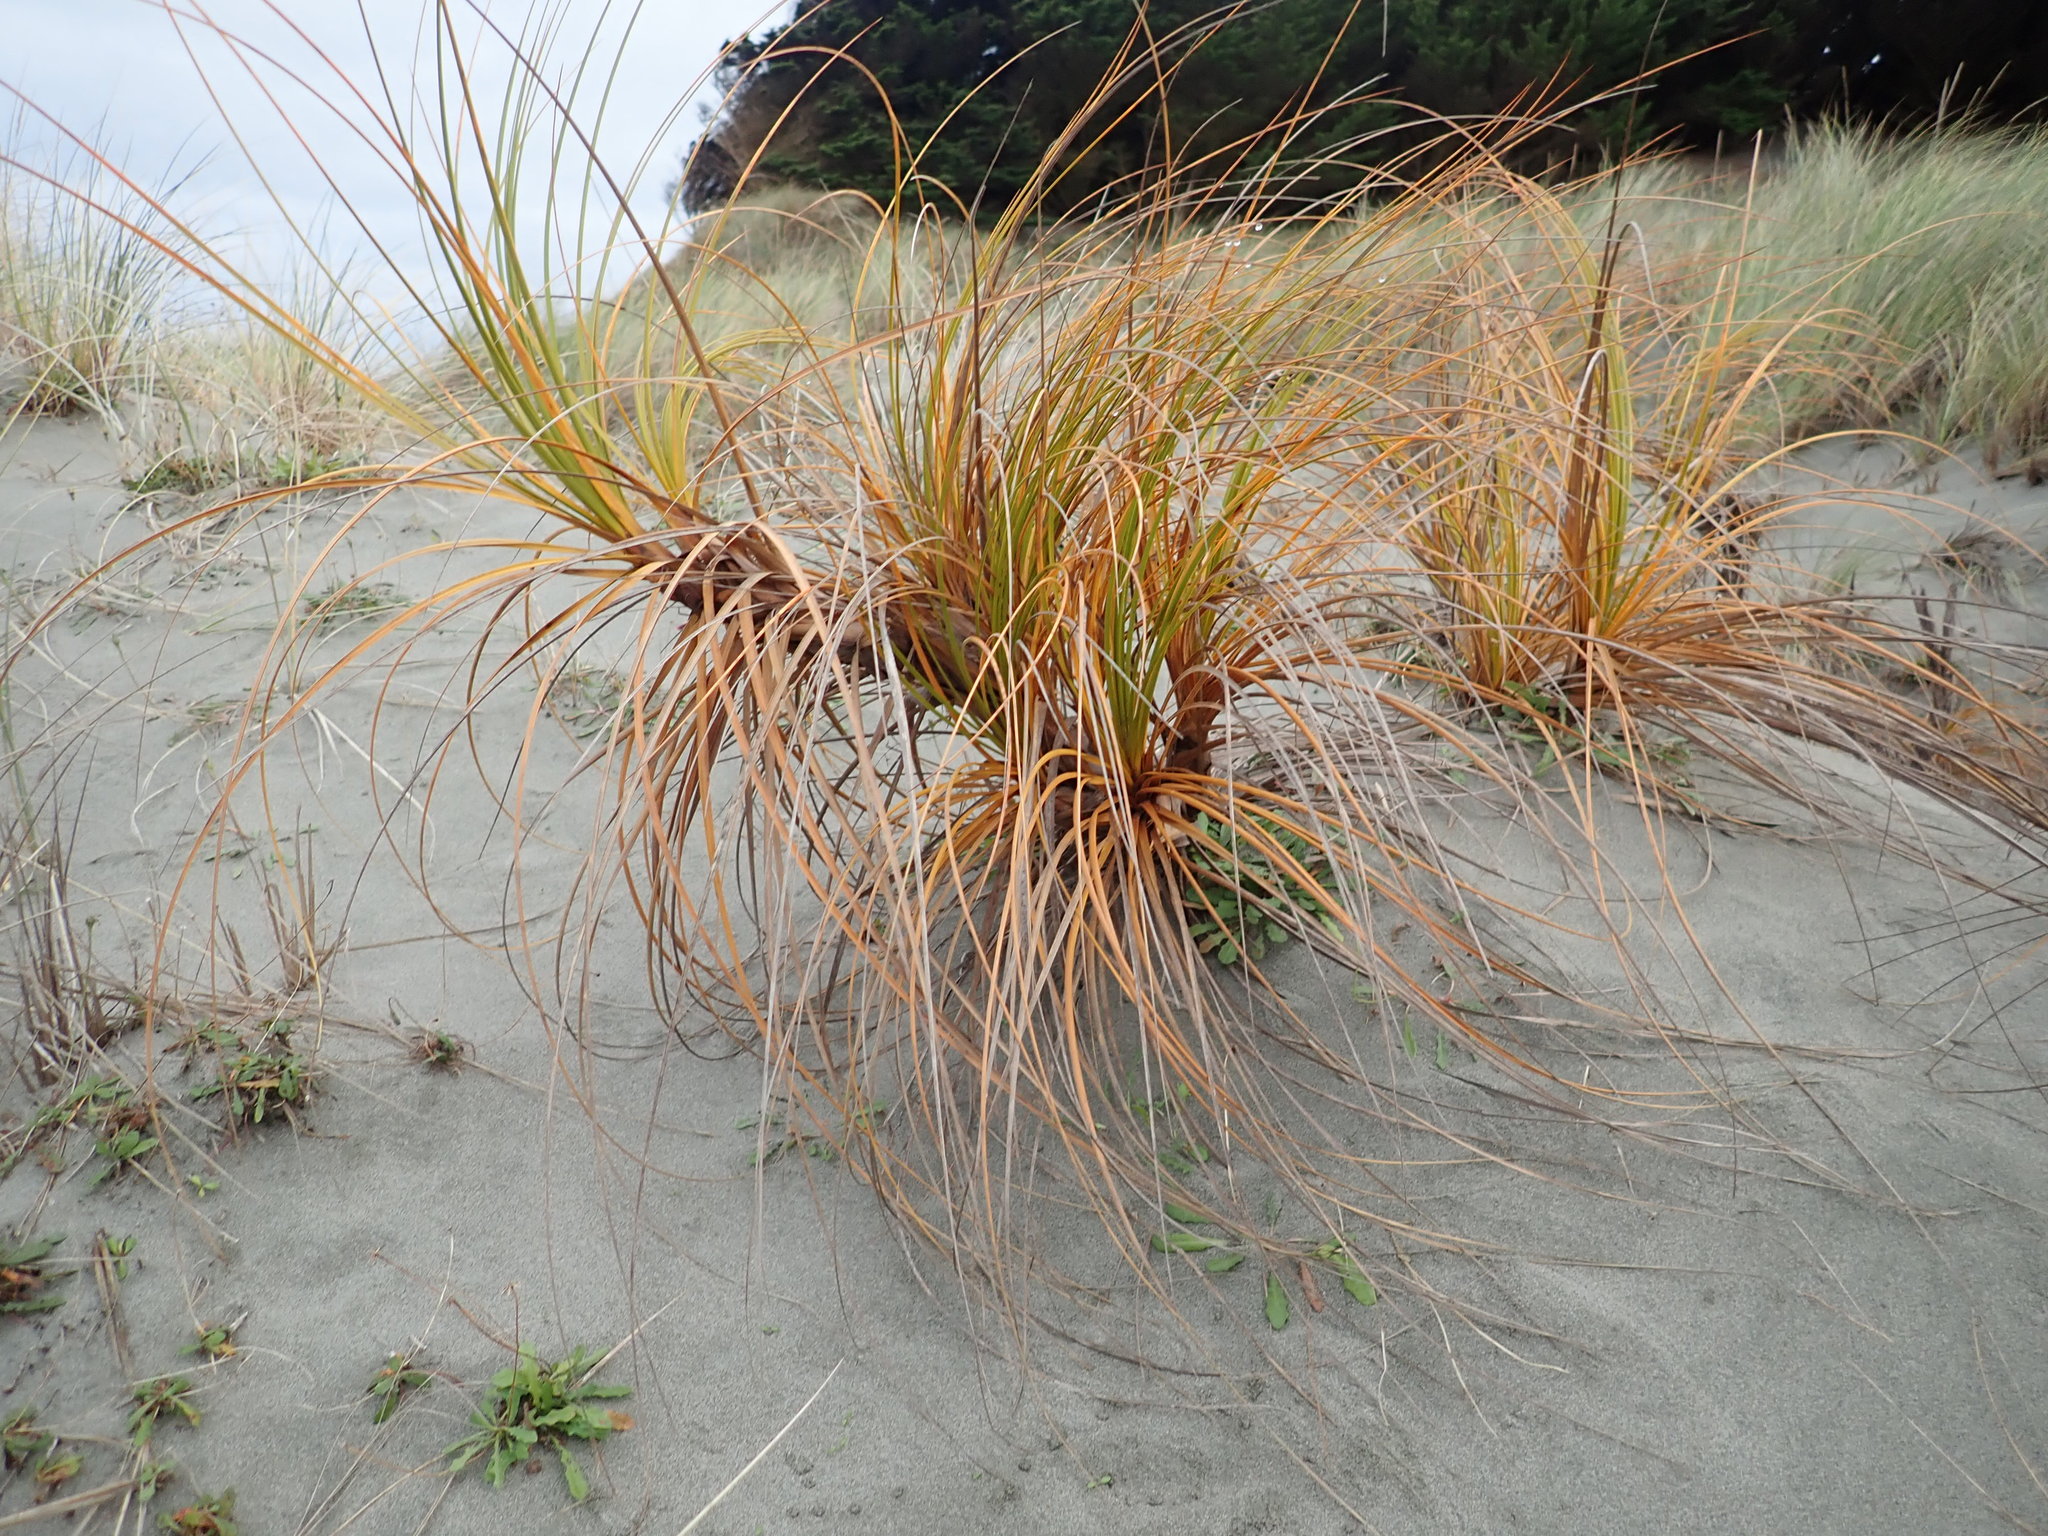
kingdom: Plantae
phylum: Tracheophyta
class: Liliopsida
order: Poales
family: Cyperaceae
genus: Ficinia
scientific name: Ficinia spiralis
